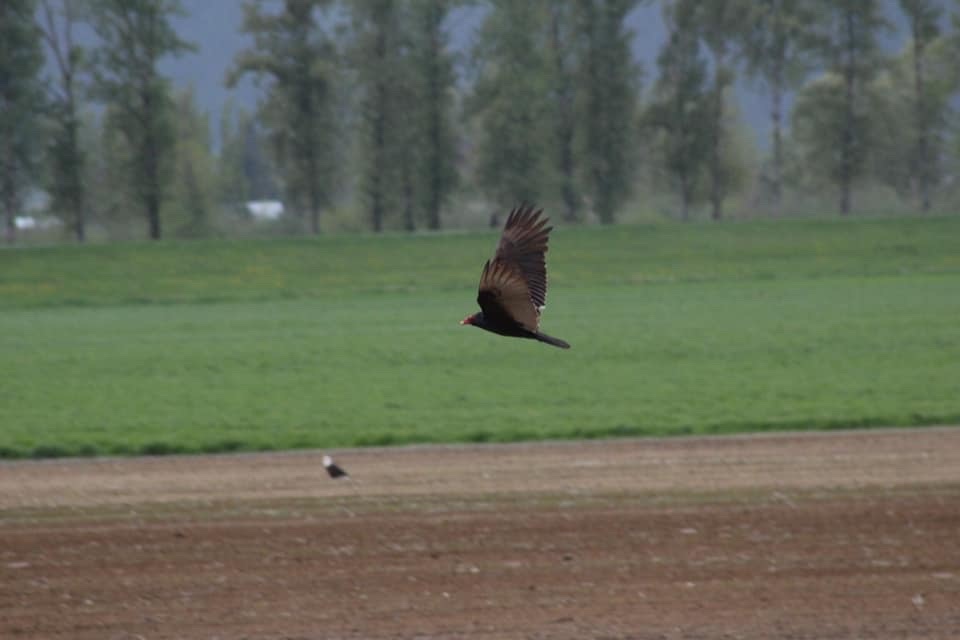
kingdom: Animalia
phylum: Chordata
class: Aves
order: Accipitriformes
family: Cathartidae
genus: Cathartes
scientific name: Cathartes aura
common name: Turkey vulture
